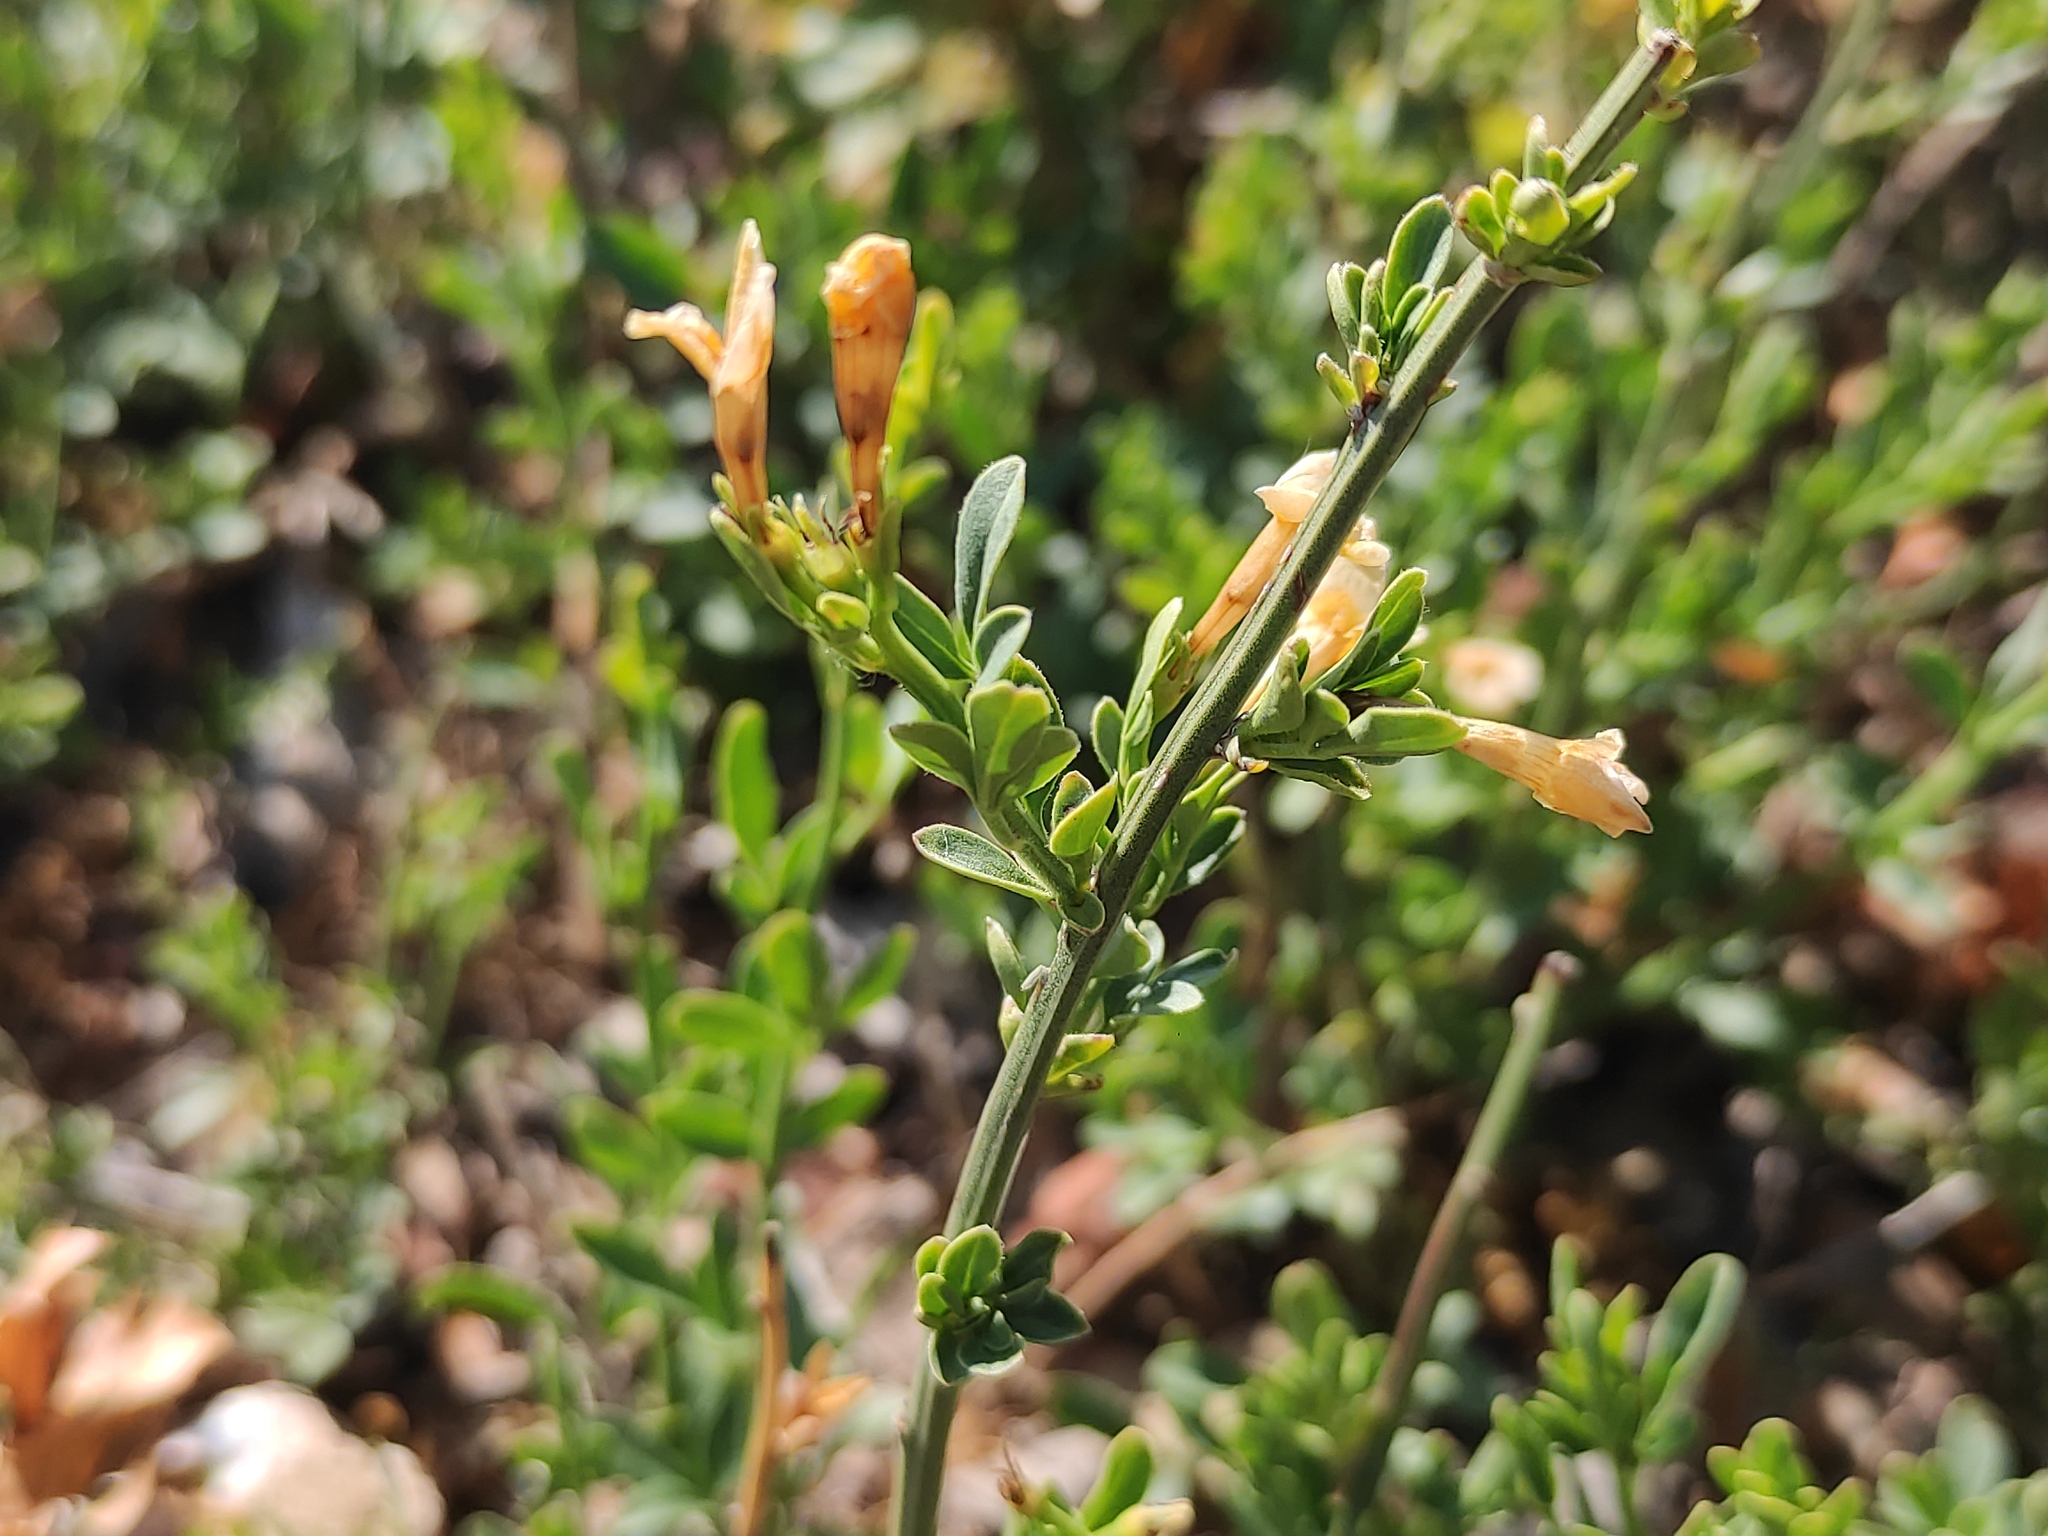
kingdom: Plantae
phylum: Tracheophyta
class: Magnoliopsida
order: Lamiales
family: Oleaceae
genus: Chrysojasminum
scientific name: Chrysojasminum fruticans
